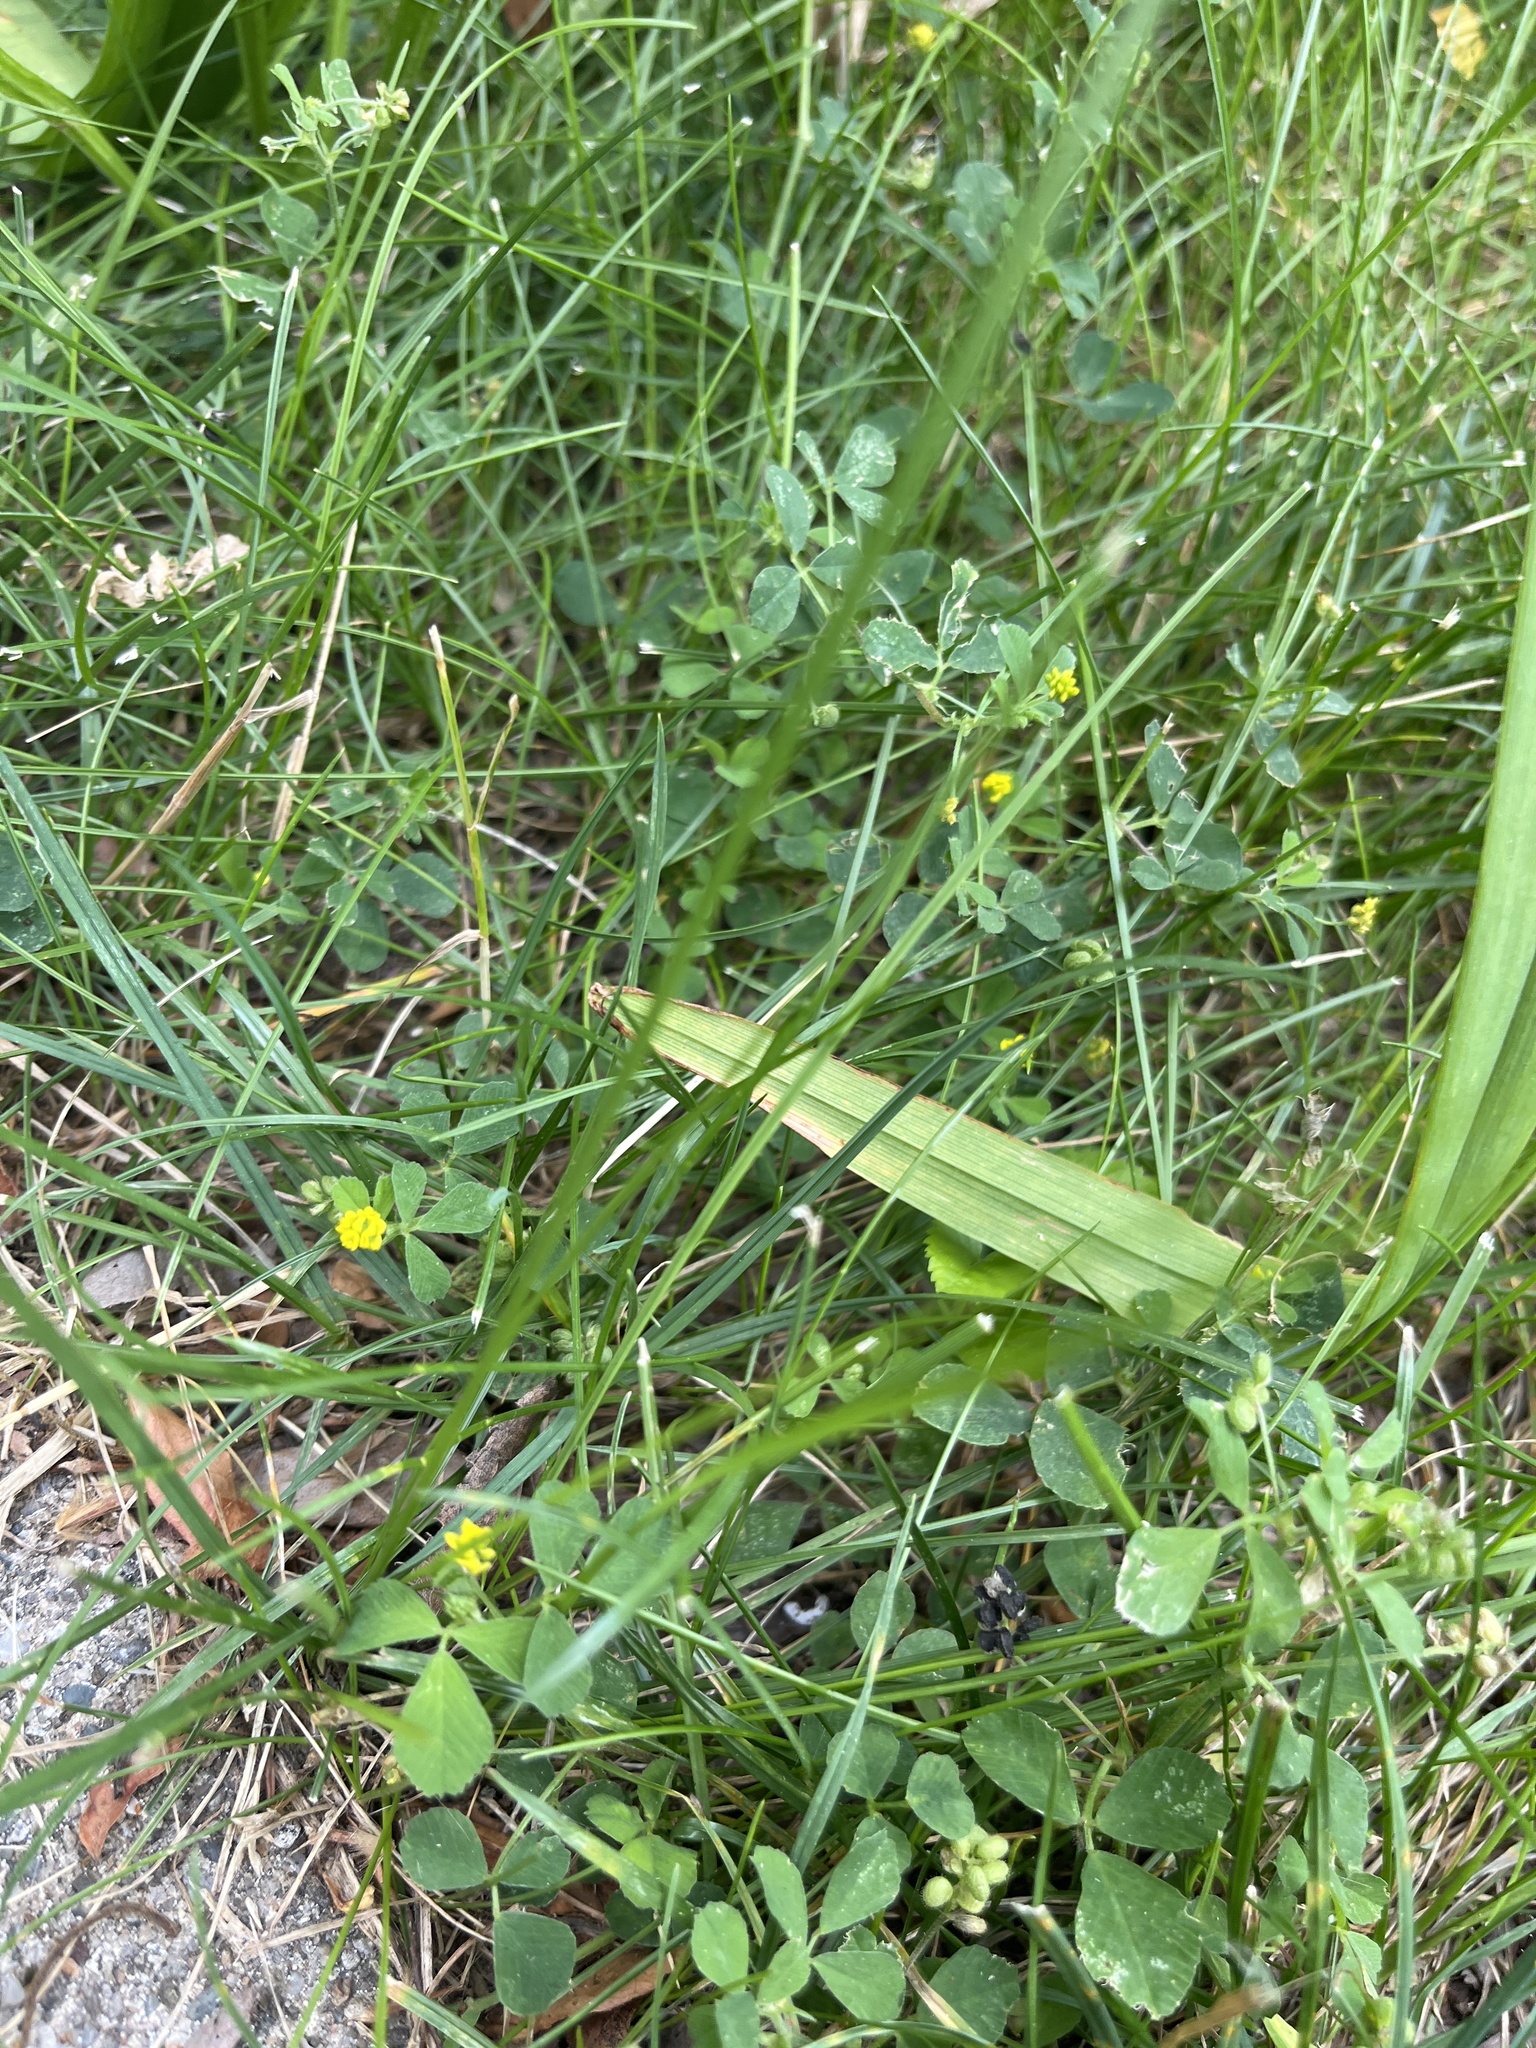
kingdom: Plantae
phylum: Tracheophyta
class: Magnoliopsida
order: Fabales
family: Fabaceae
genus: Medicago
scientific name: Medicago lupulina
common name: Black medick
